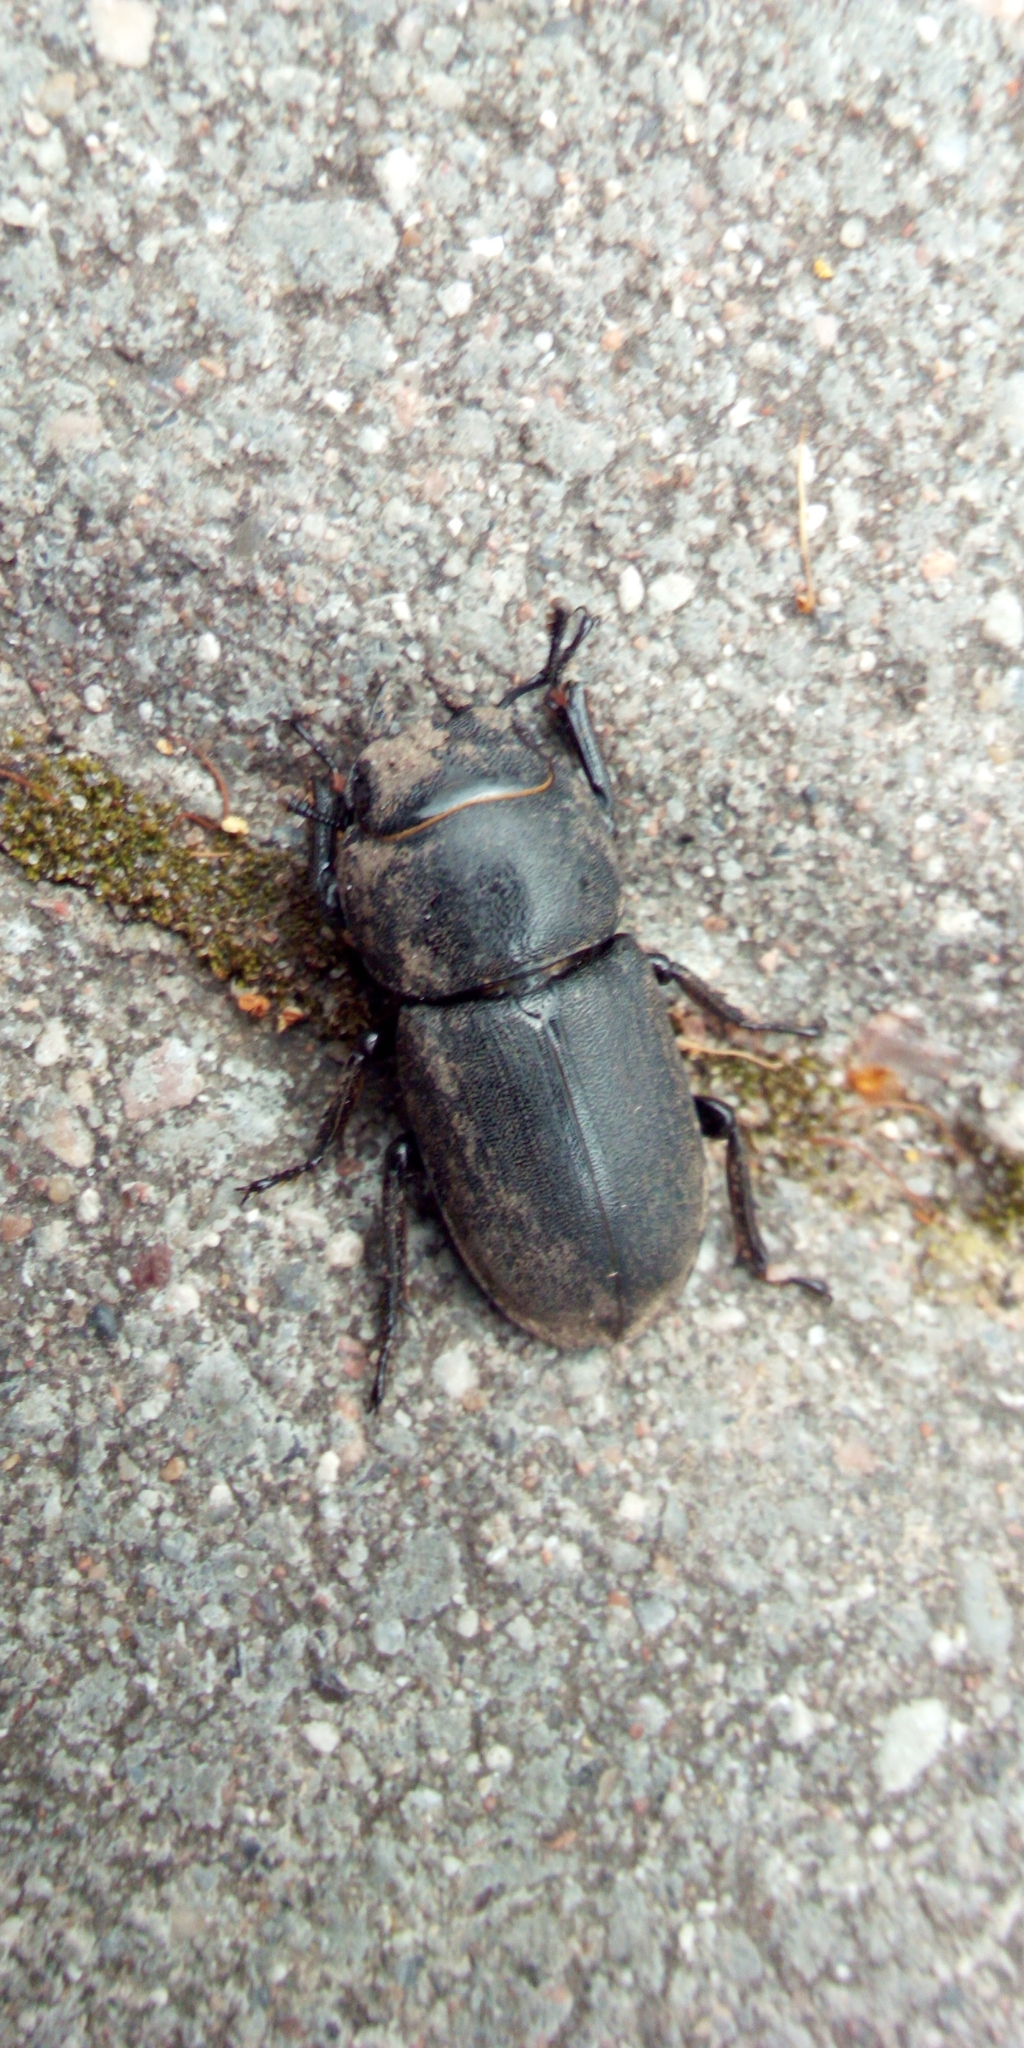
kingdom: Animalia
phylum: Arthropoda
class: Insecta
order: Coleoptera
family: Lucanidae
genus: Dorcus
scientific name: Dorcus parallelipipedus
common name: Lesser stag beetle
